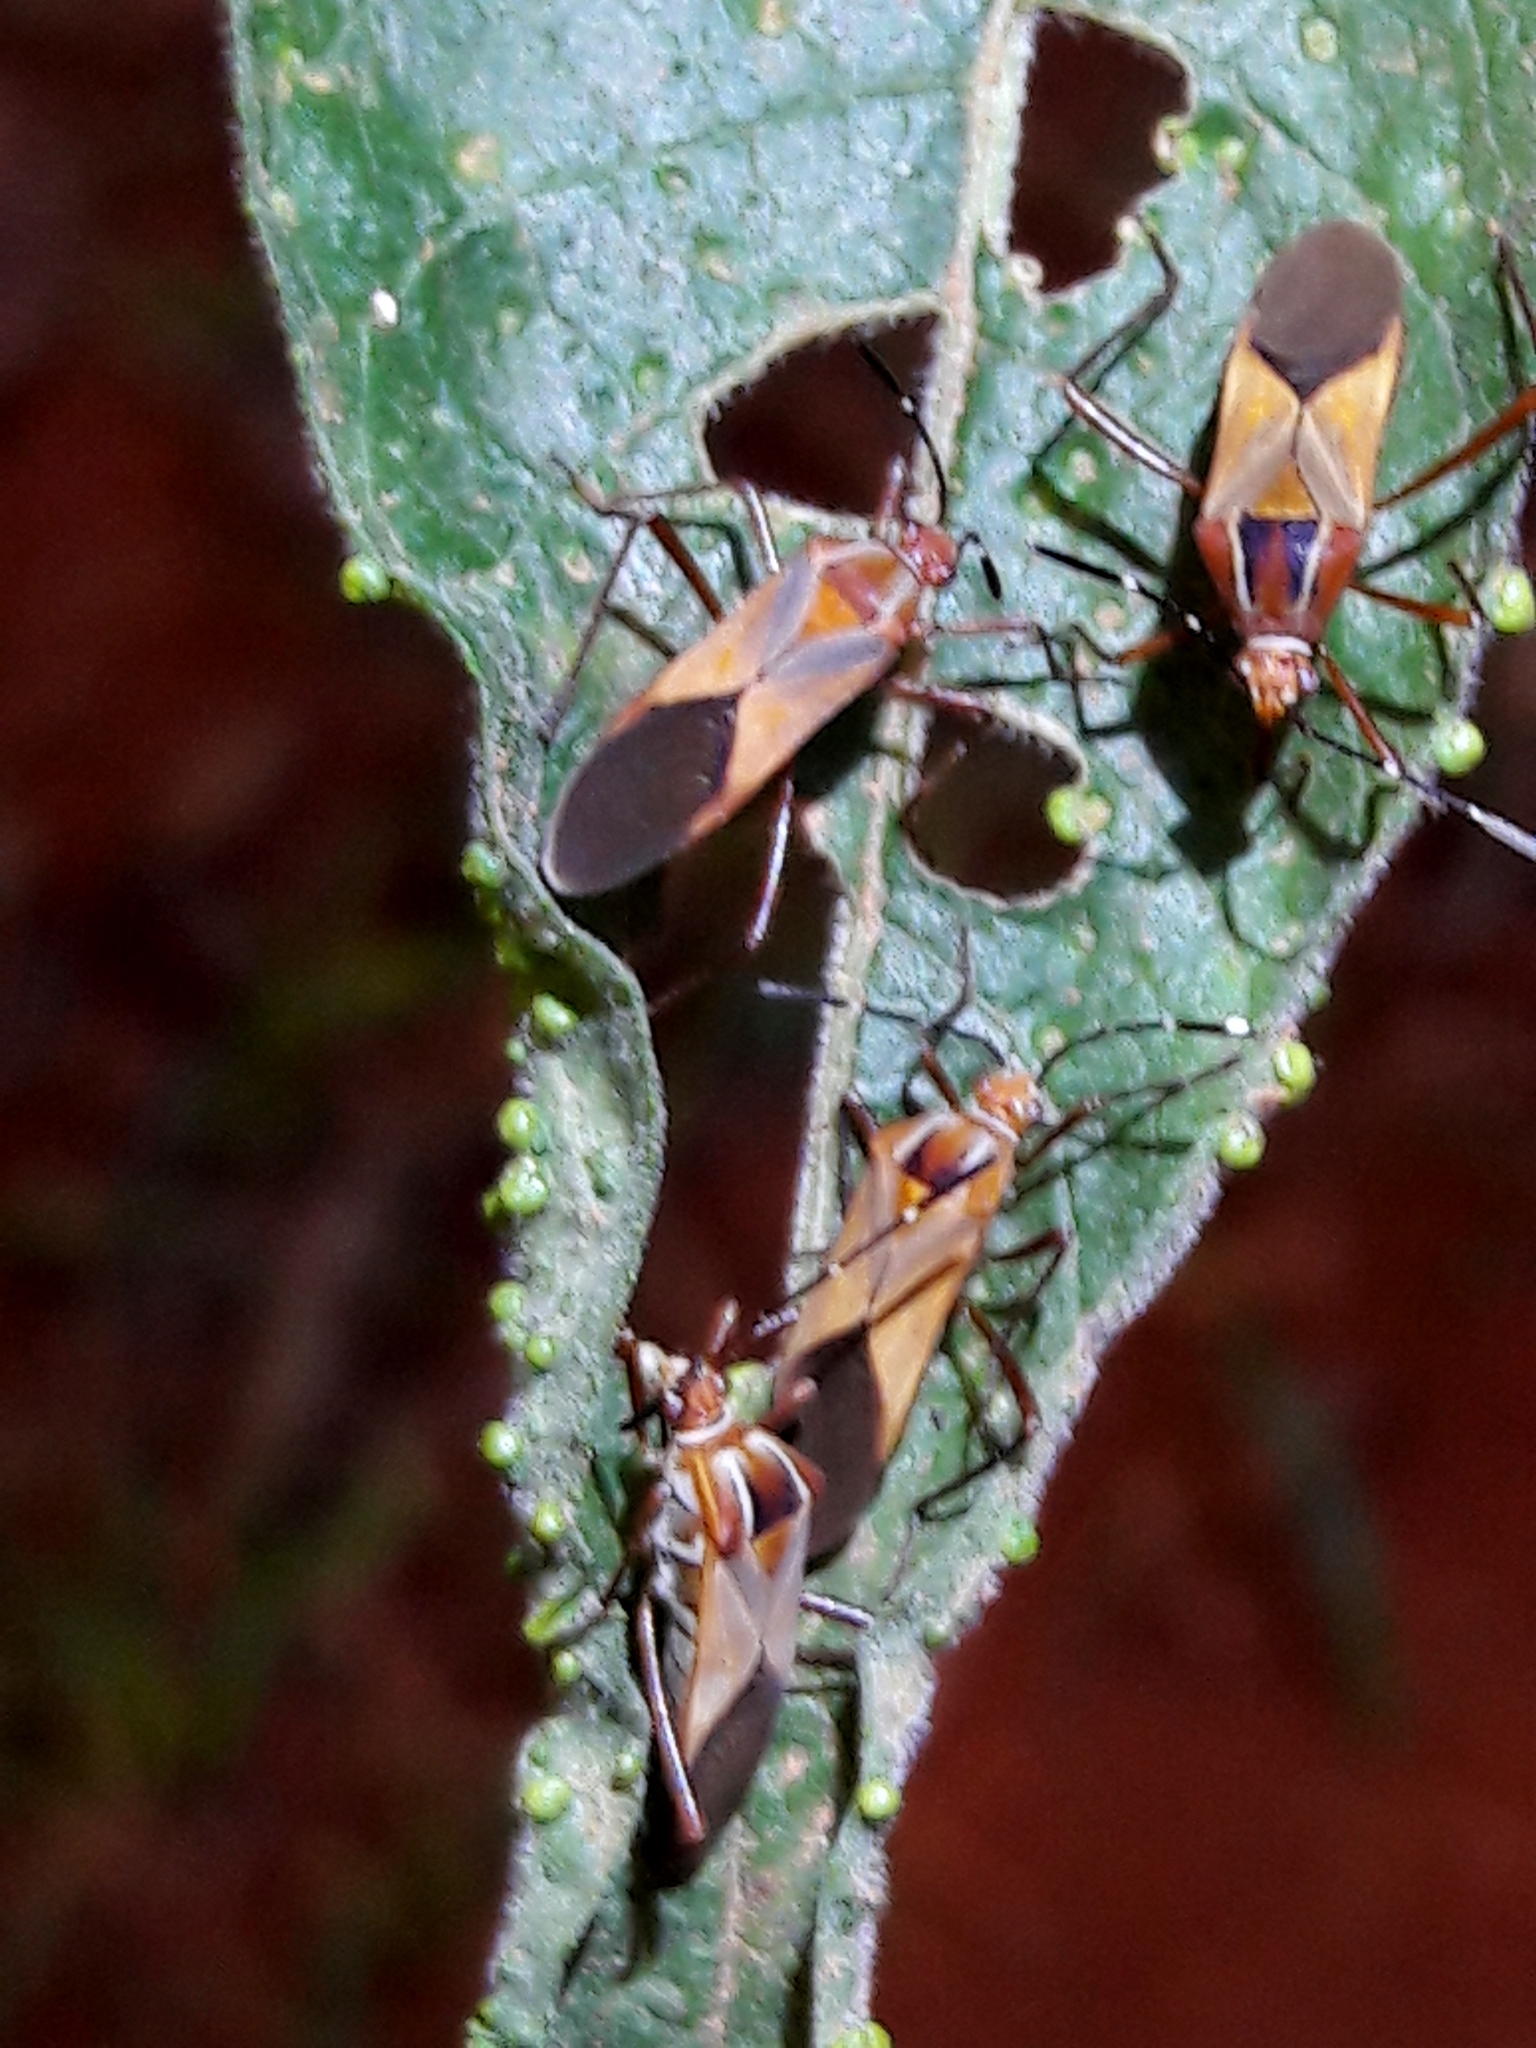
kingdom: Animalia
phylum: Arthropoda
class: Insecta
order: Hemiptera
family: Coreidae
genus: Hypselonotus
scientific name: Hypselonotus interruptus
